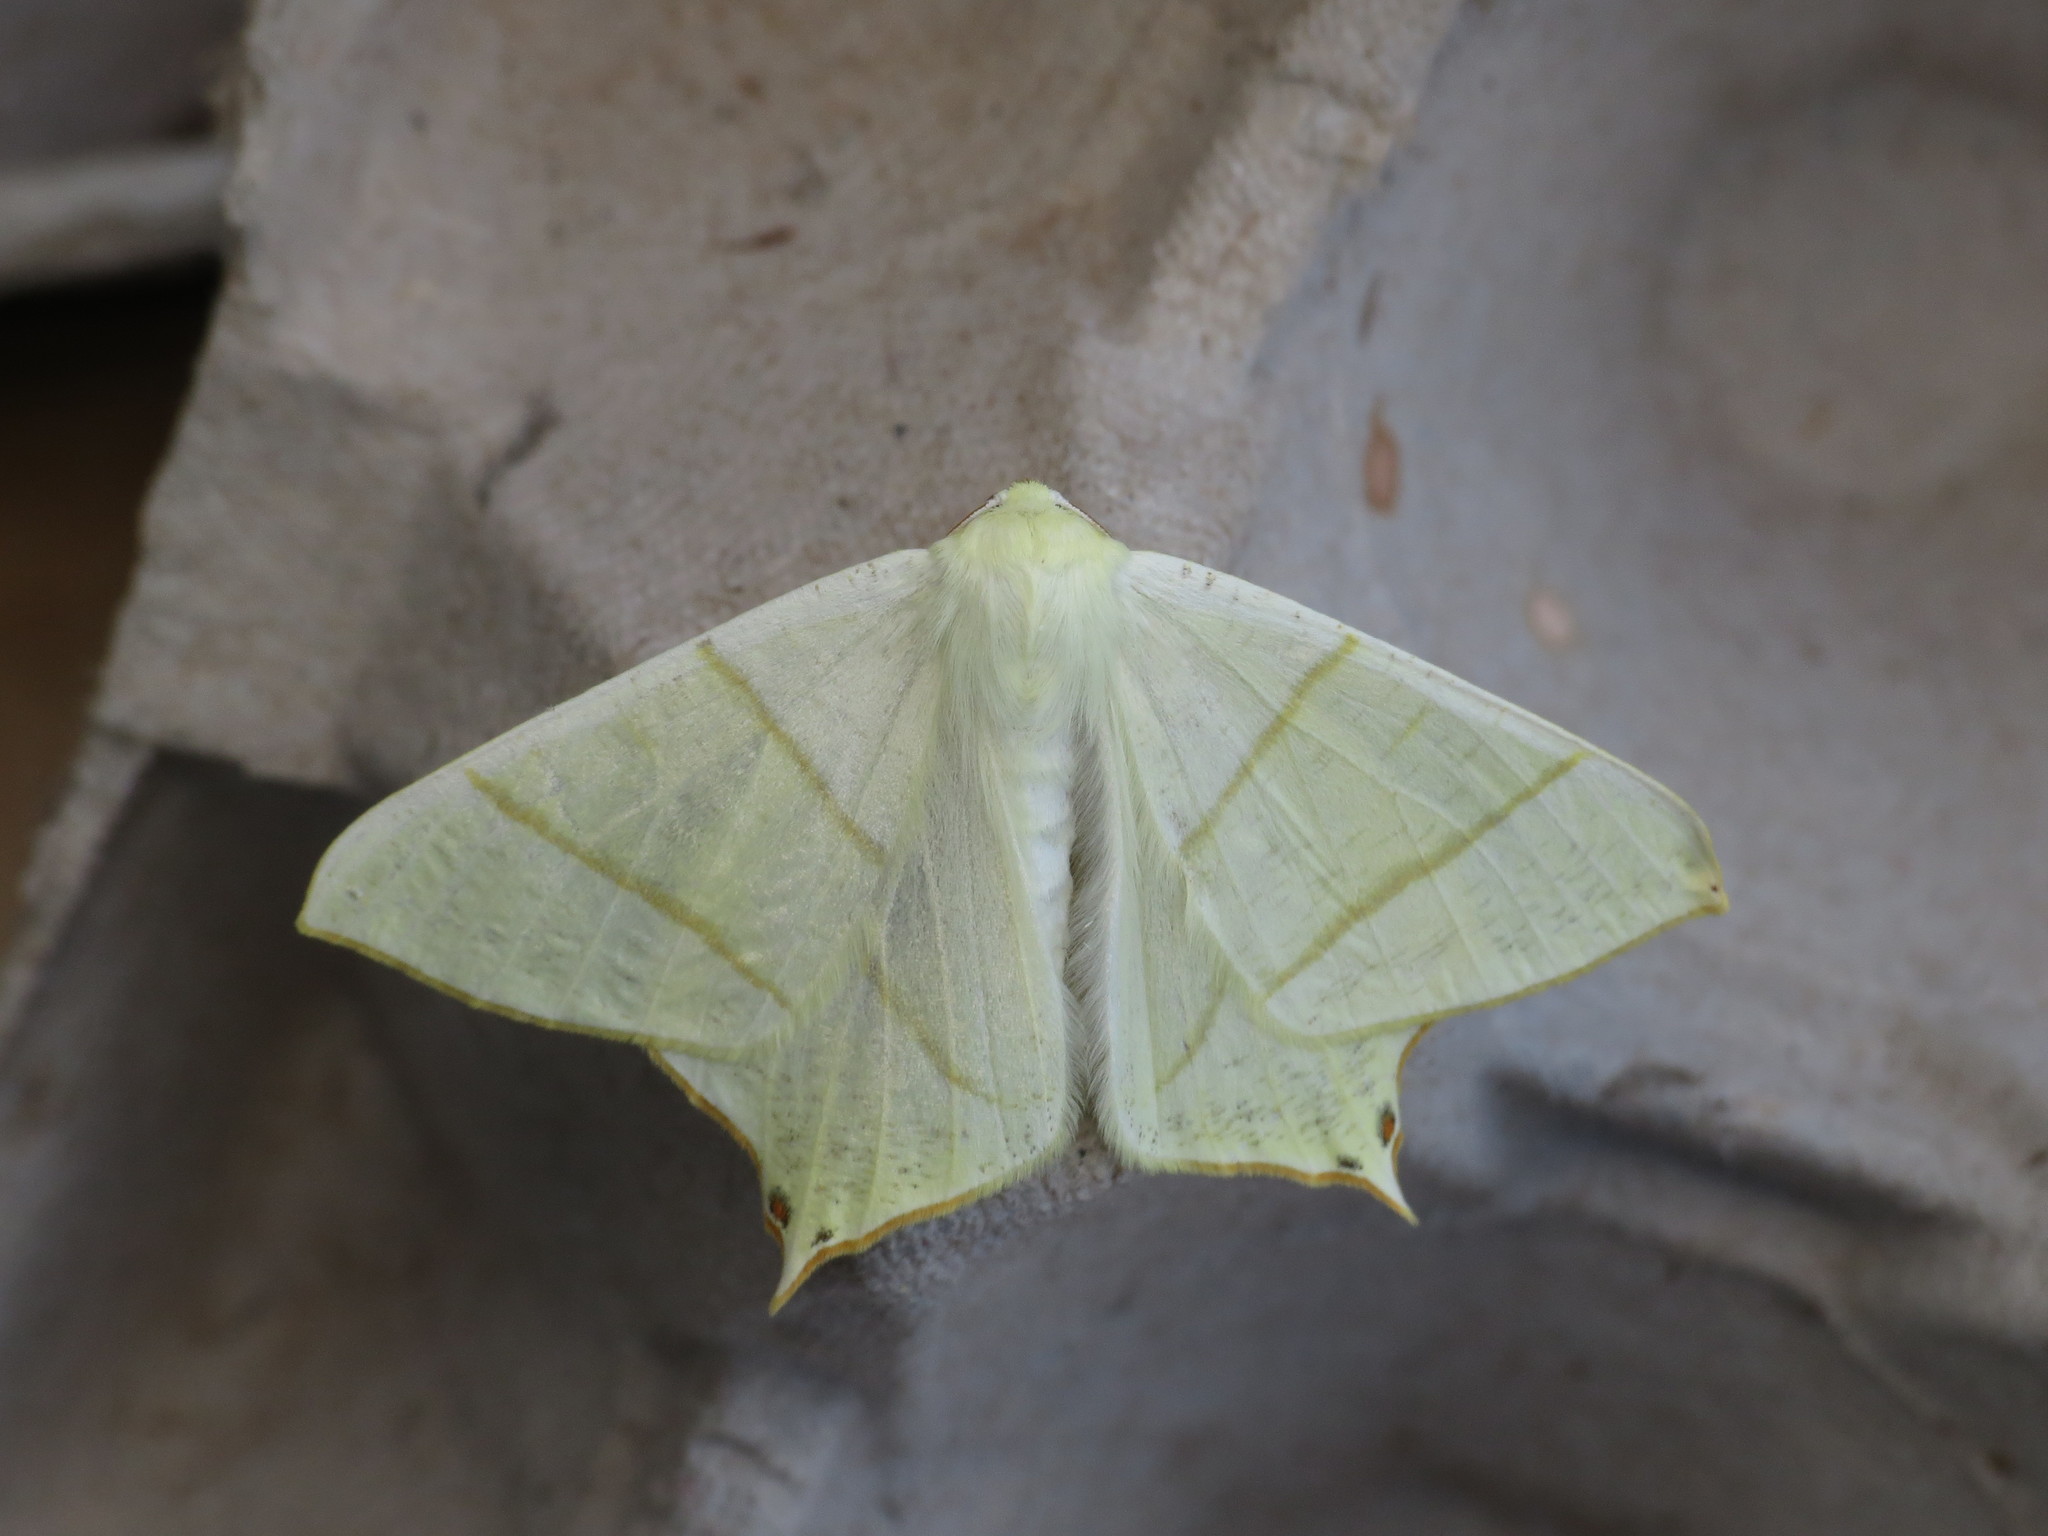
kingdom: Animalia
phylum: Arthropoda
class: Insecta
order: Lepidoptera
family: Geometridae
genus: Ourapteryx
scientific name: Ourapteryx sambucaria
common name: Swallow-tailed moth
